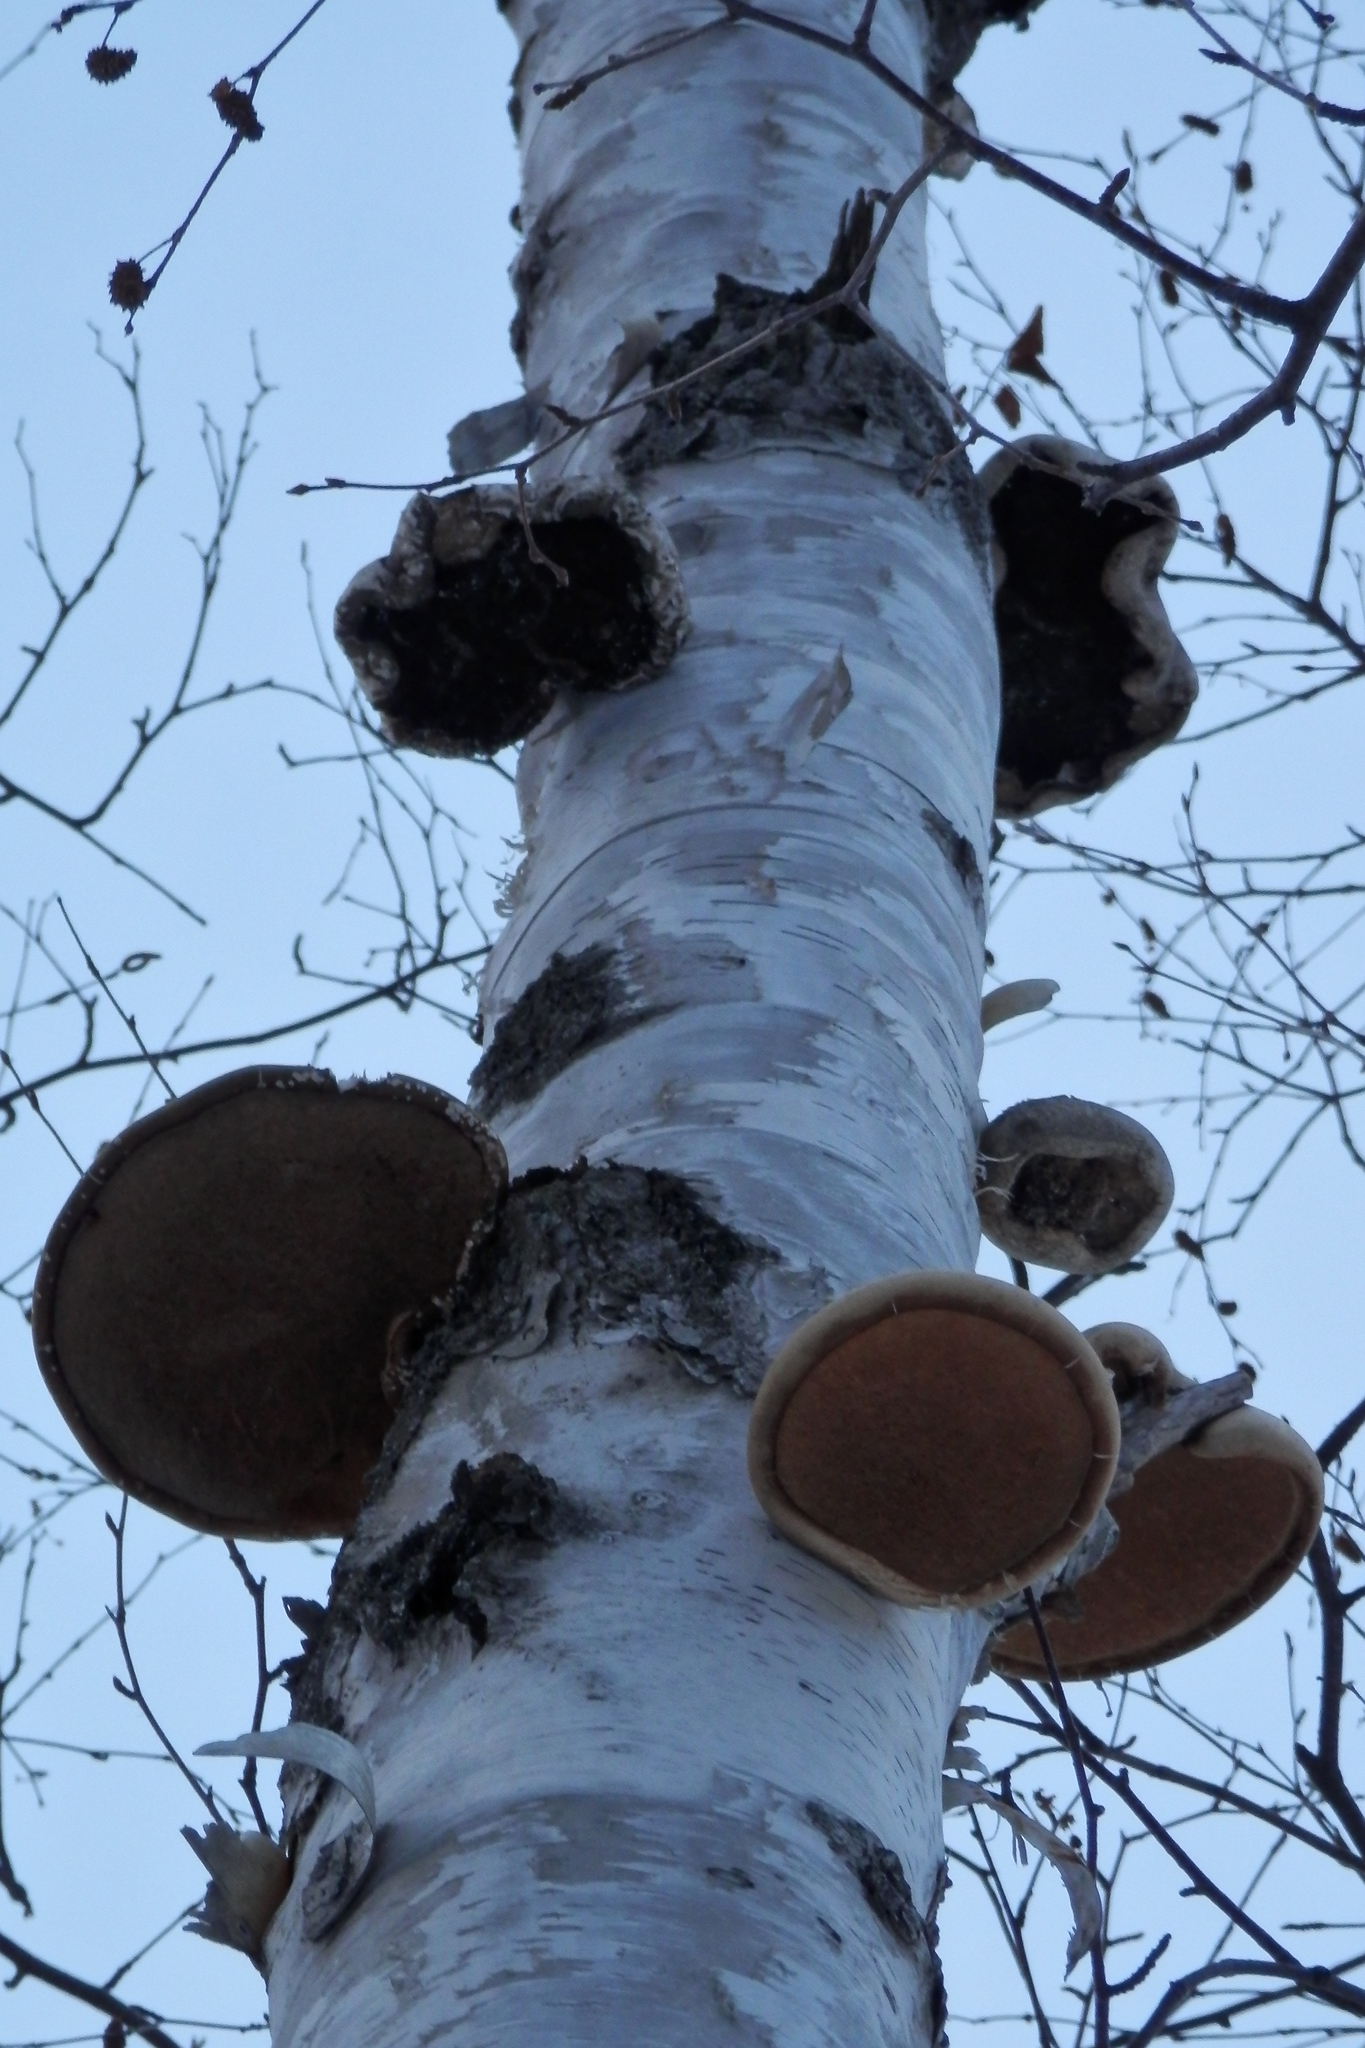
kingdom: Fungi
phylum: Basidiomycota
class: Agaricomycetes
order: Polyporales
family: Fomitopsidaceae
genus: Fomitopsis
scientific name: Fomitopsis betulina
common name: Birch polypore
